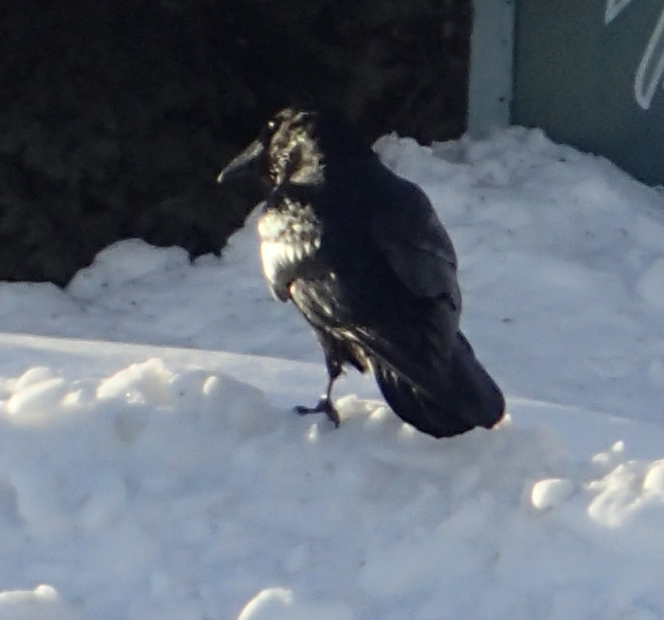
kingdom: Animalia
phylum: Chordata
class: Aves
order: Passeriformes
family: Corvidae
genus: Corvus
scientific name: Corvus corax
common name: Common raven
